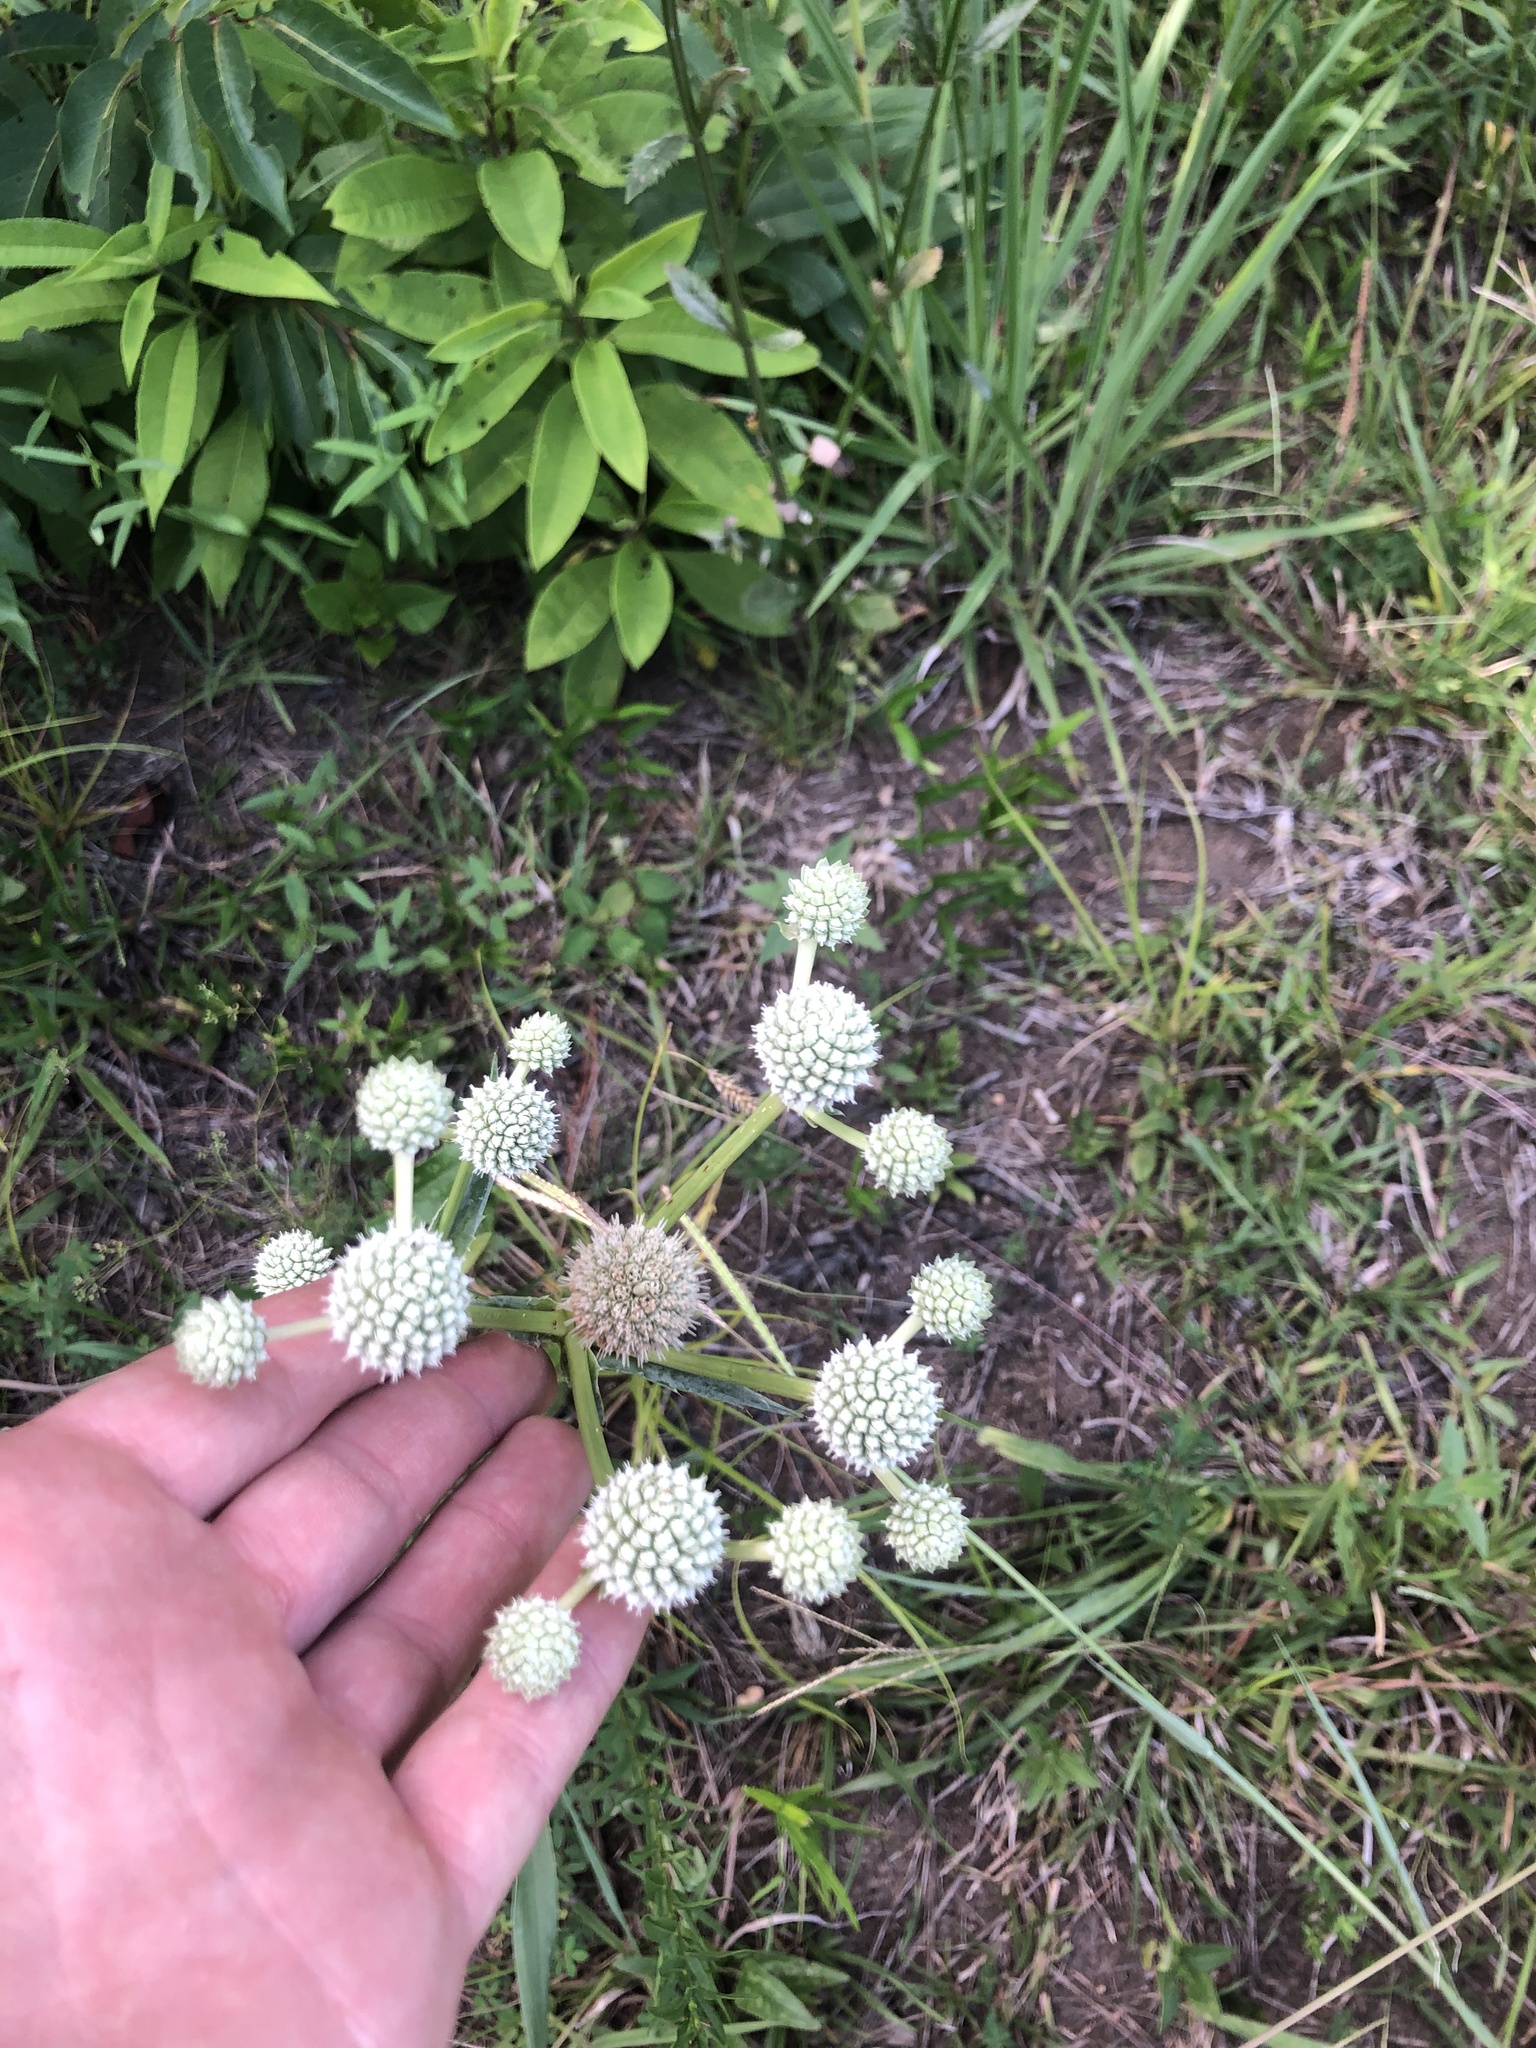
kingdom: Plantae
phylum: Tracheophyta
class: Magnoliopsida
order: Apiales
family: Apiaceae
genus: Eryngium
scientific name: Eryngium yuccifolium
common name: Button eryngo
